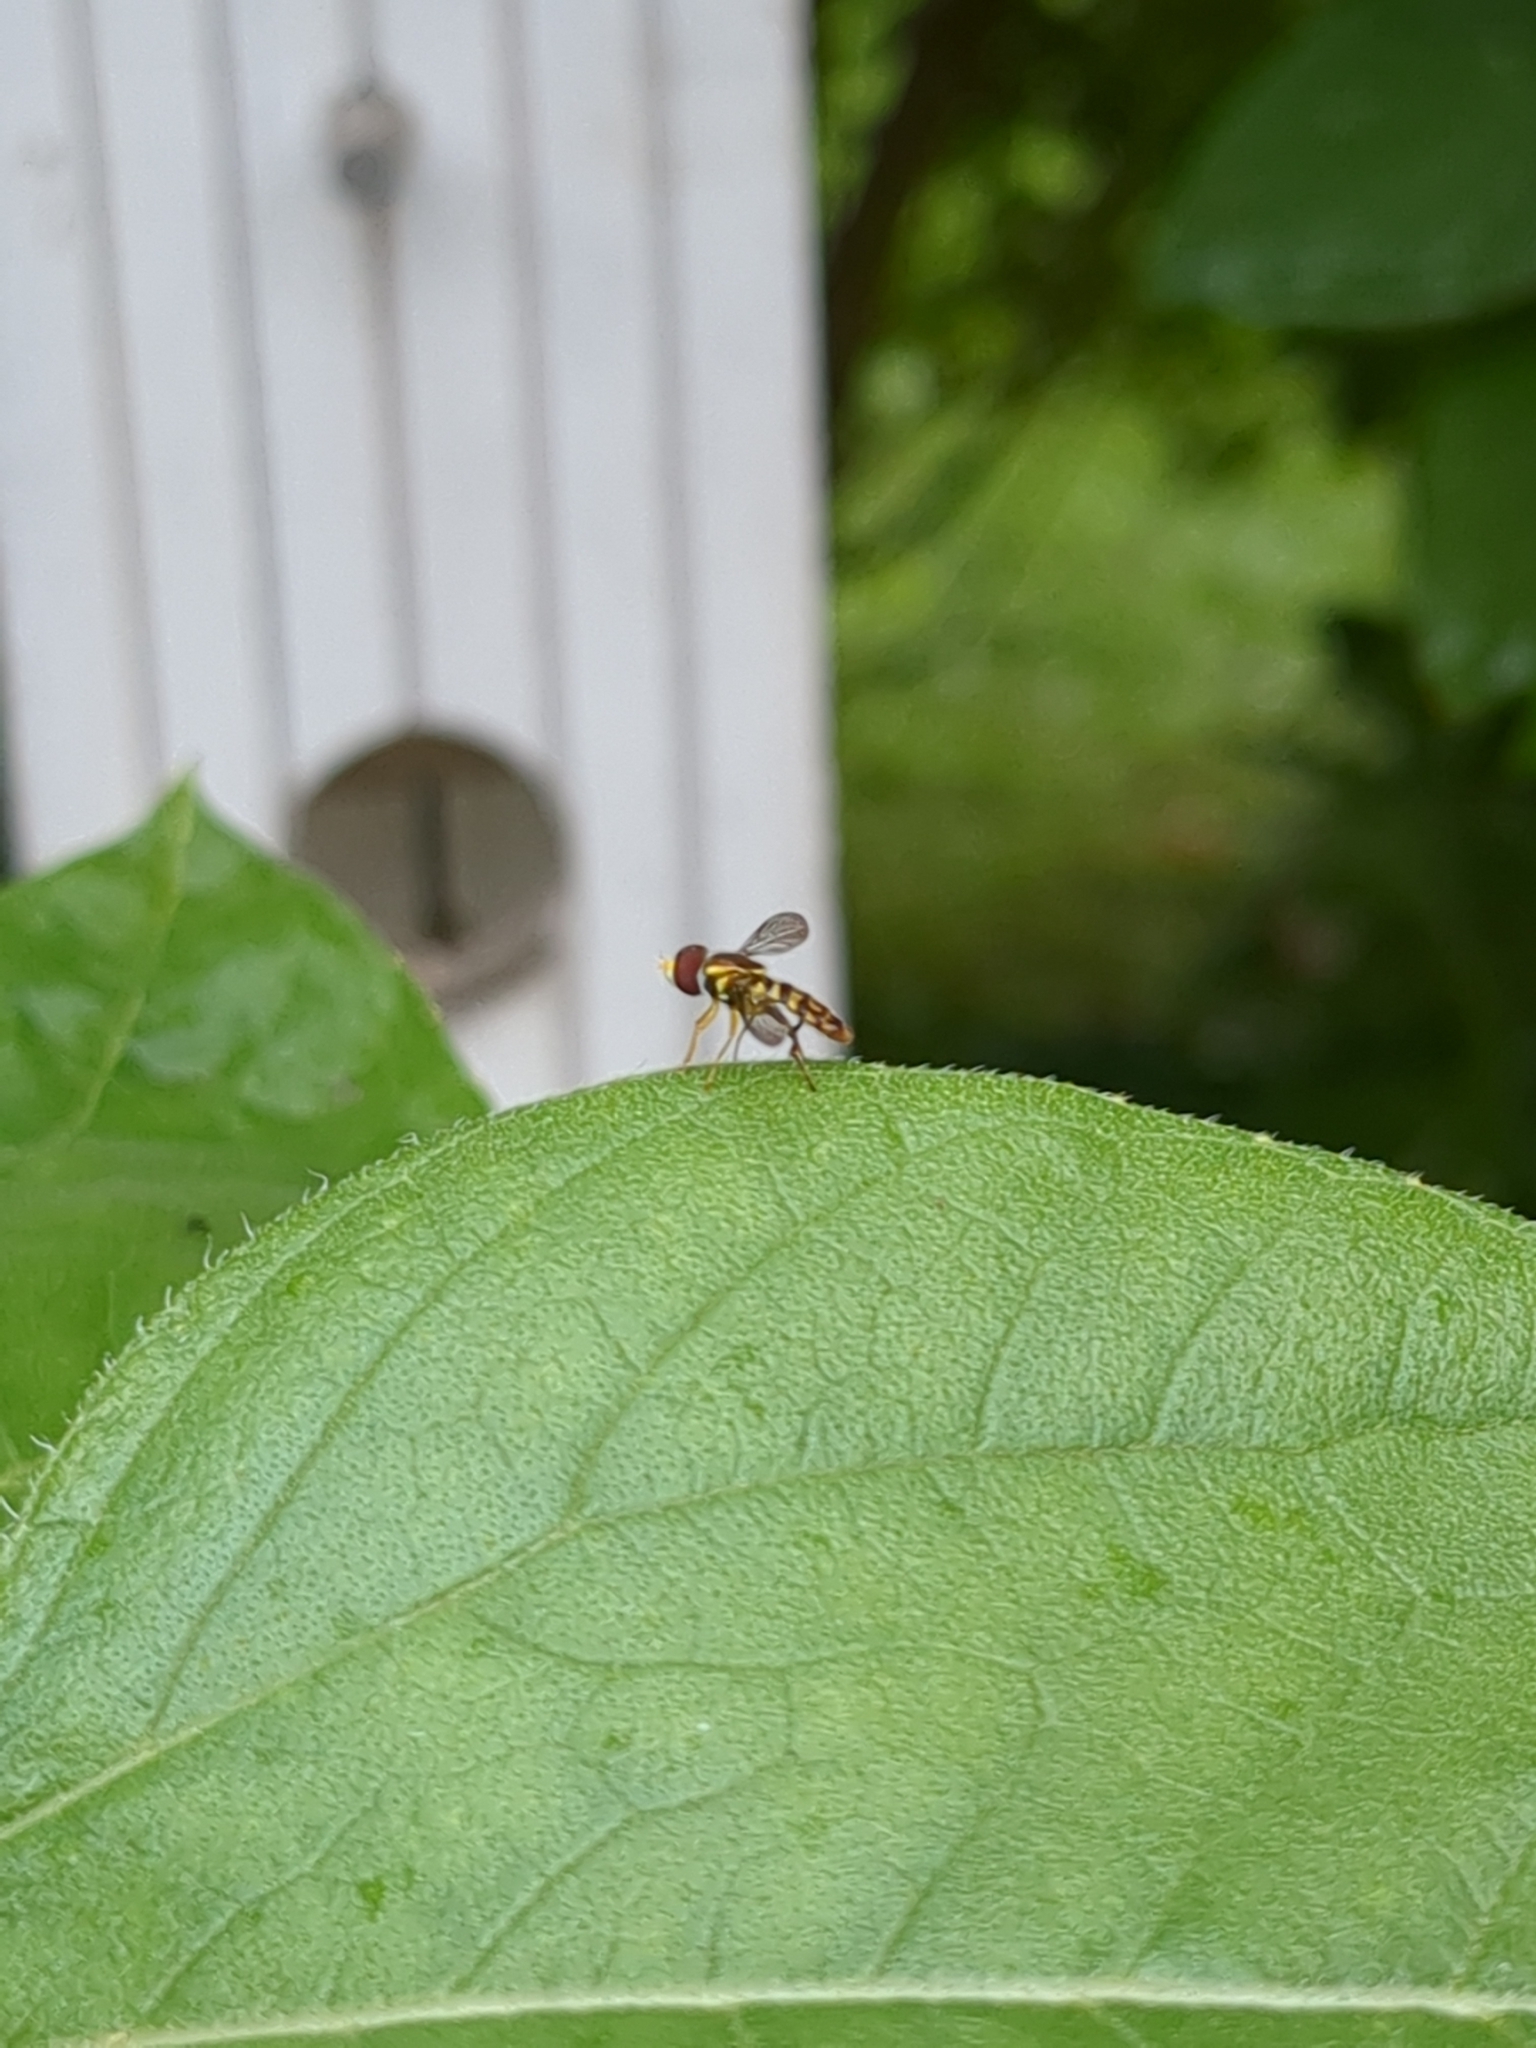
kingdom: Animalia
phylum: Arthropoda
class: Insecta
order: Diptera
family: Syrphidae
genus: Toxomerus
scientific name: Toxomerus geminatus
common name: Eastern calligrapher
